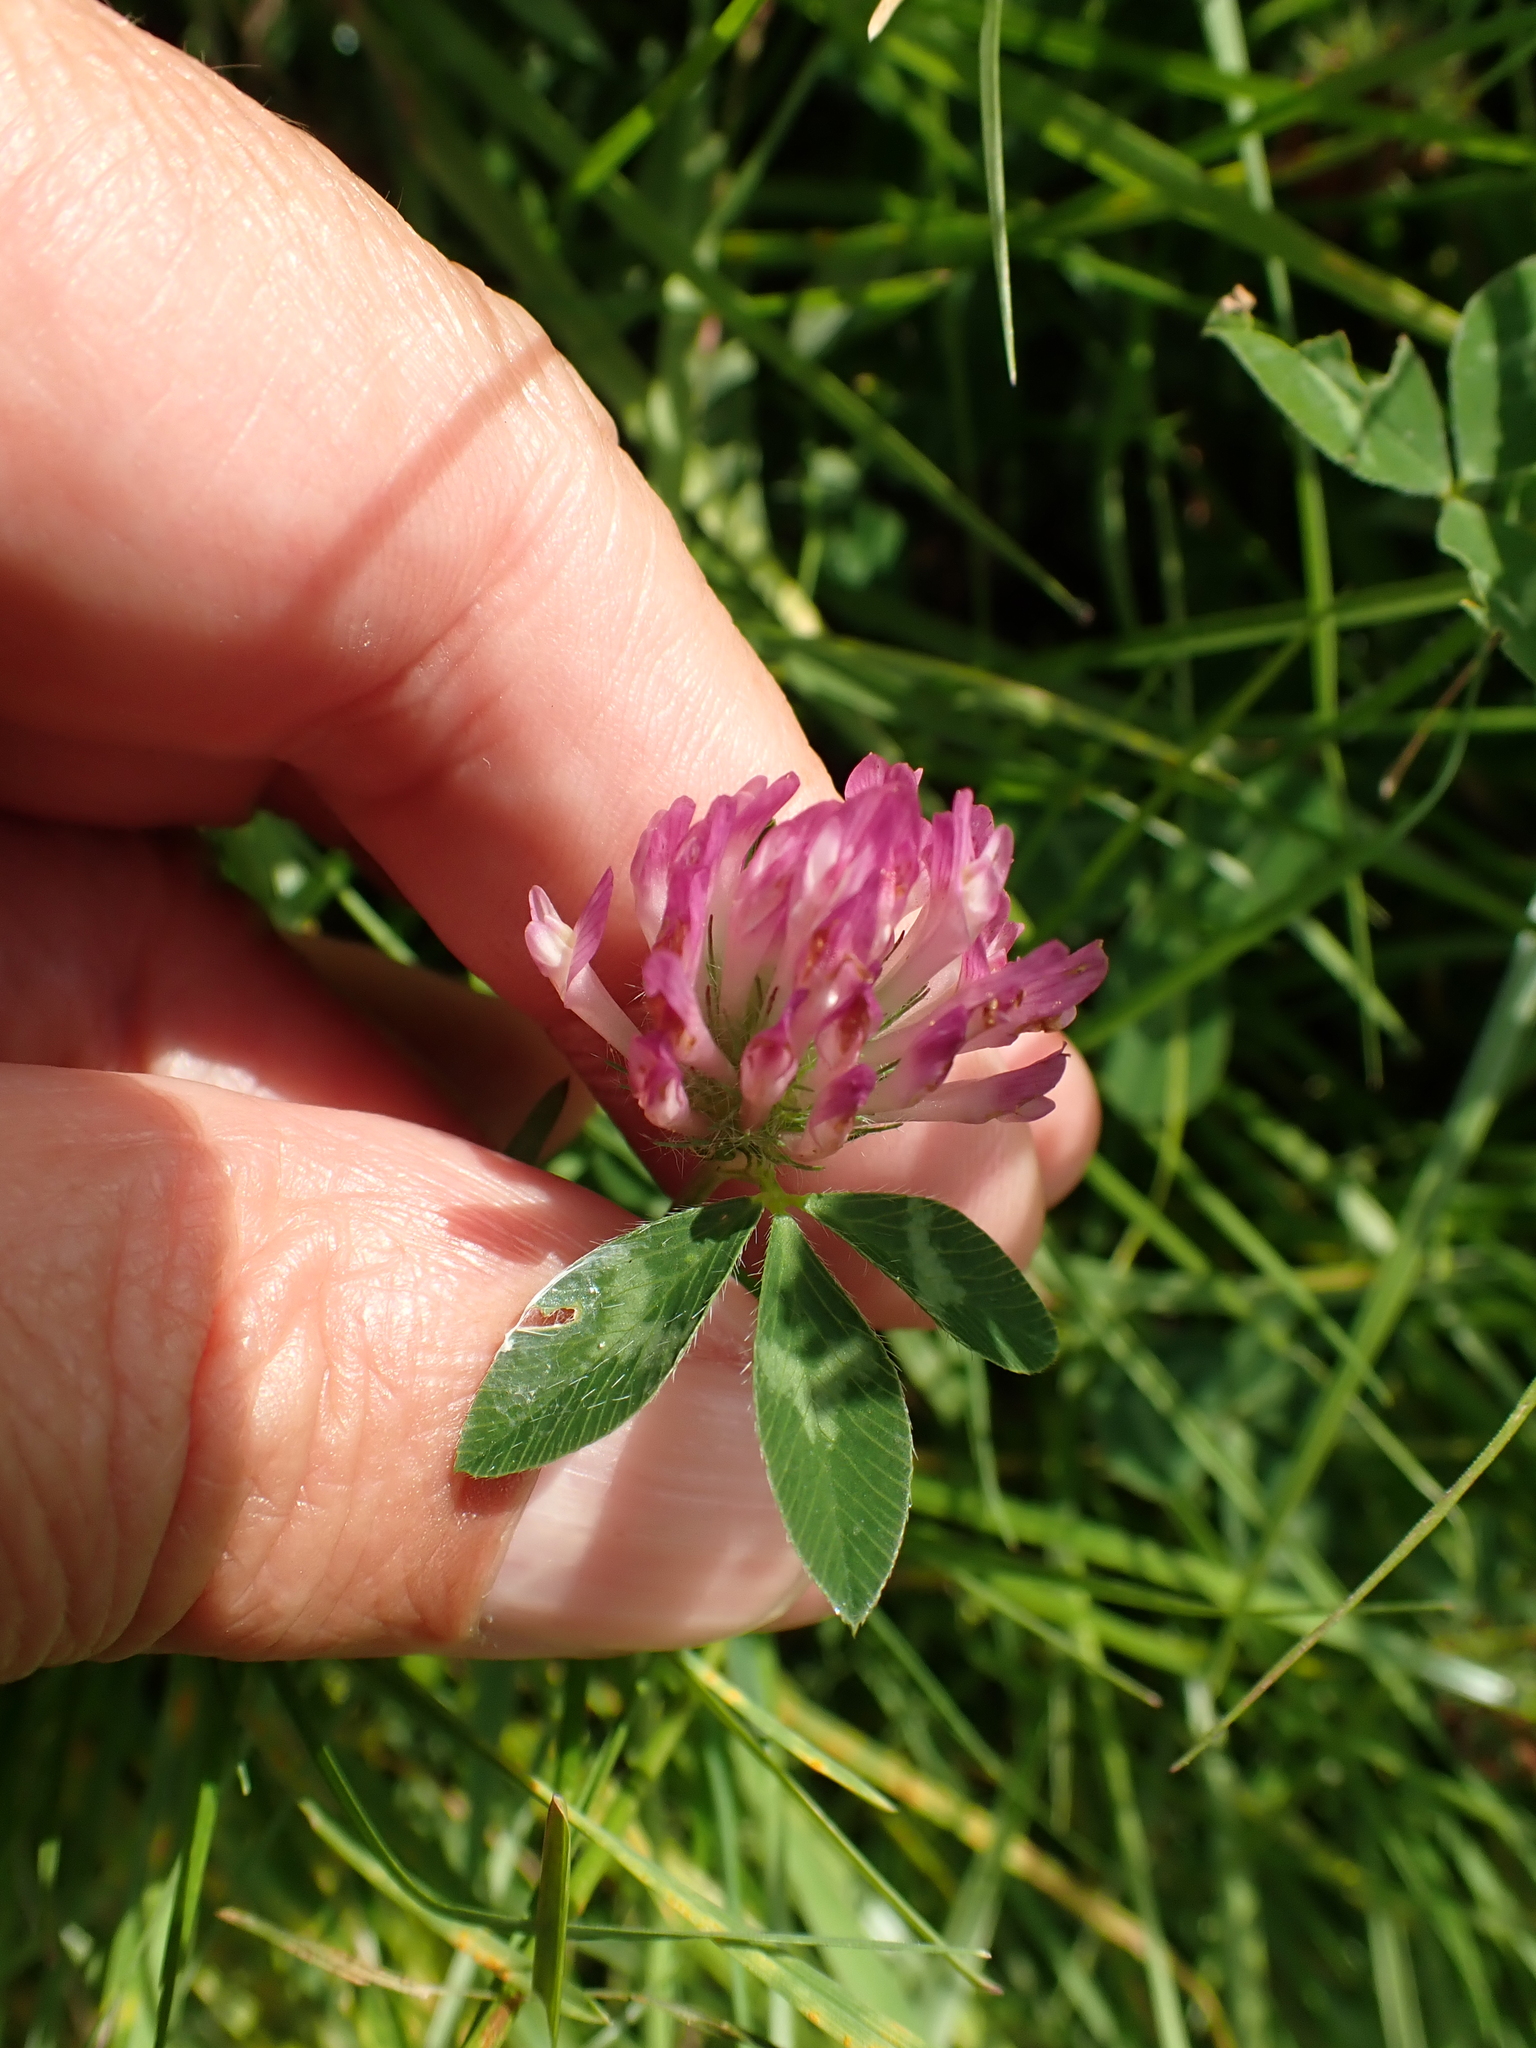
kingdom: Plantae
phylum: Tracheophyta
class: Magnoliopsida
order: Fabales
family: Fabaceae
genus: Trifolium
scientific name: Trifolium pratense
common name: Red clover
